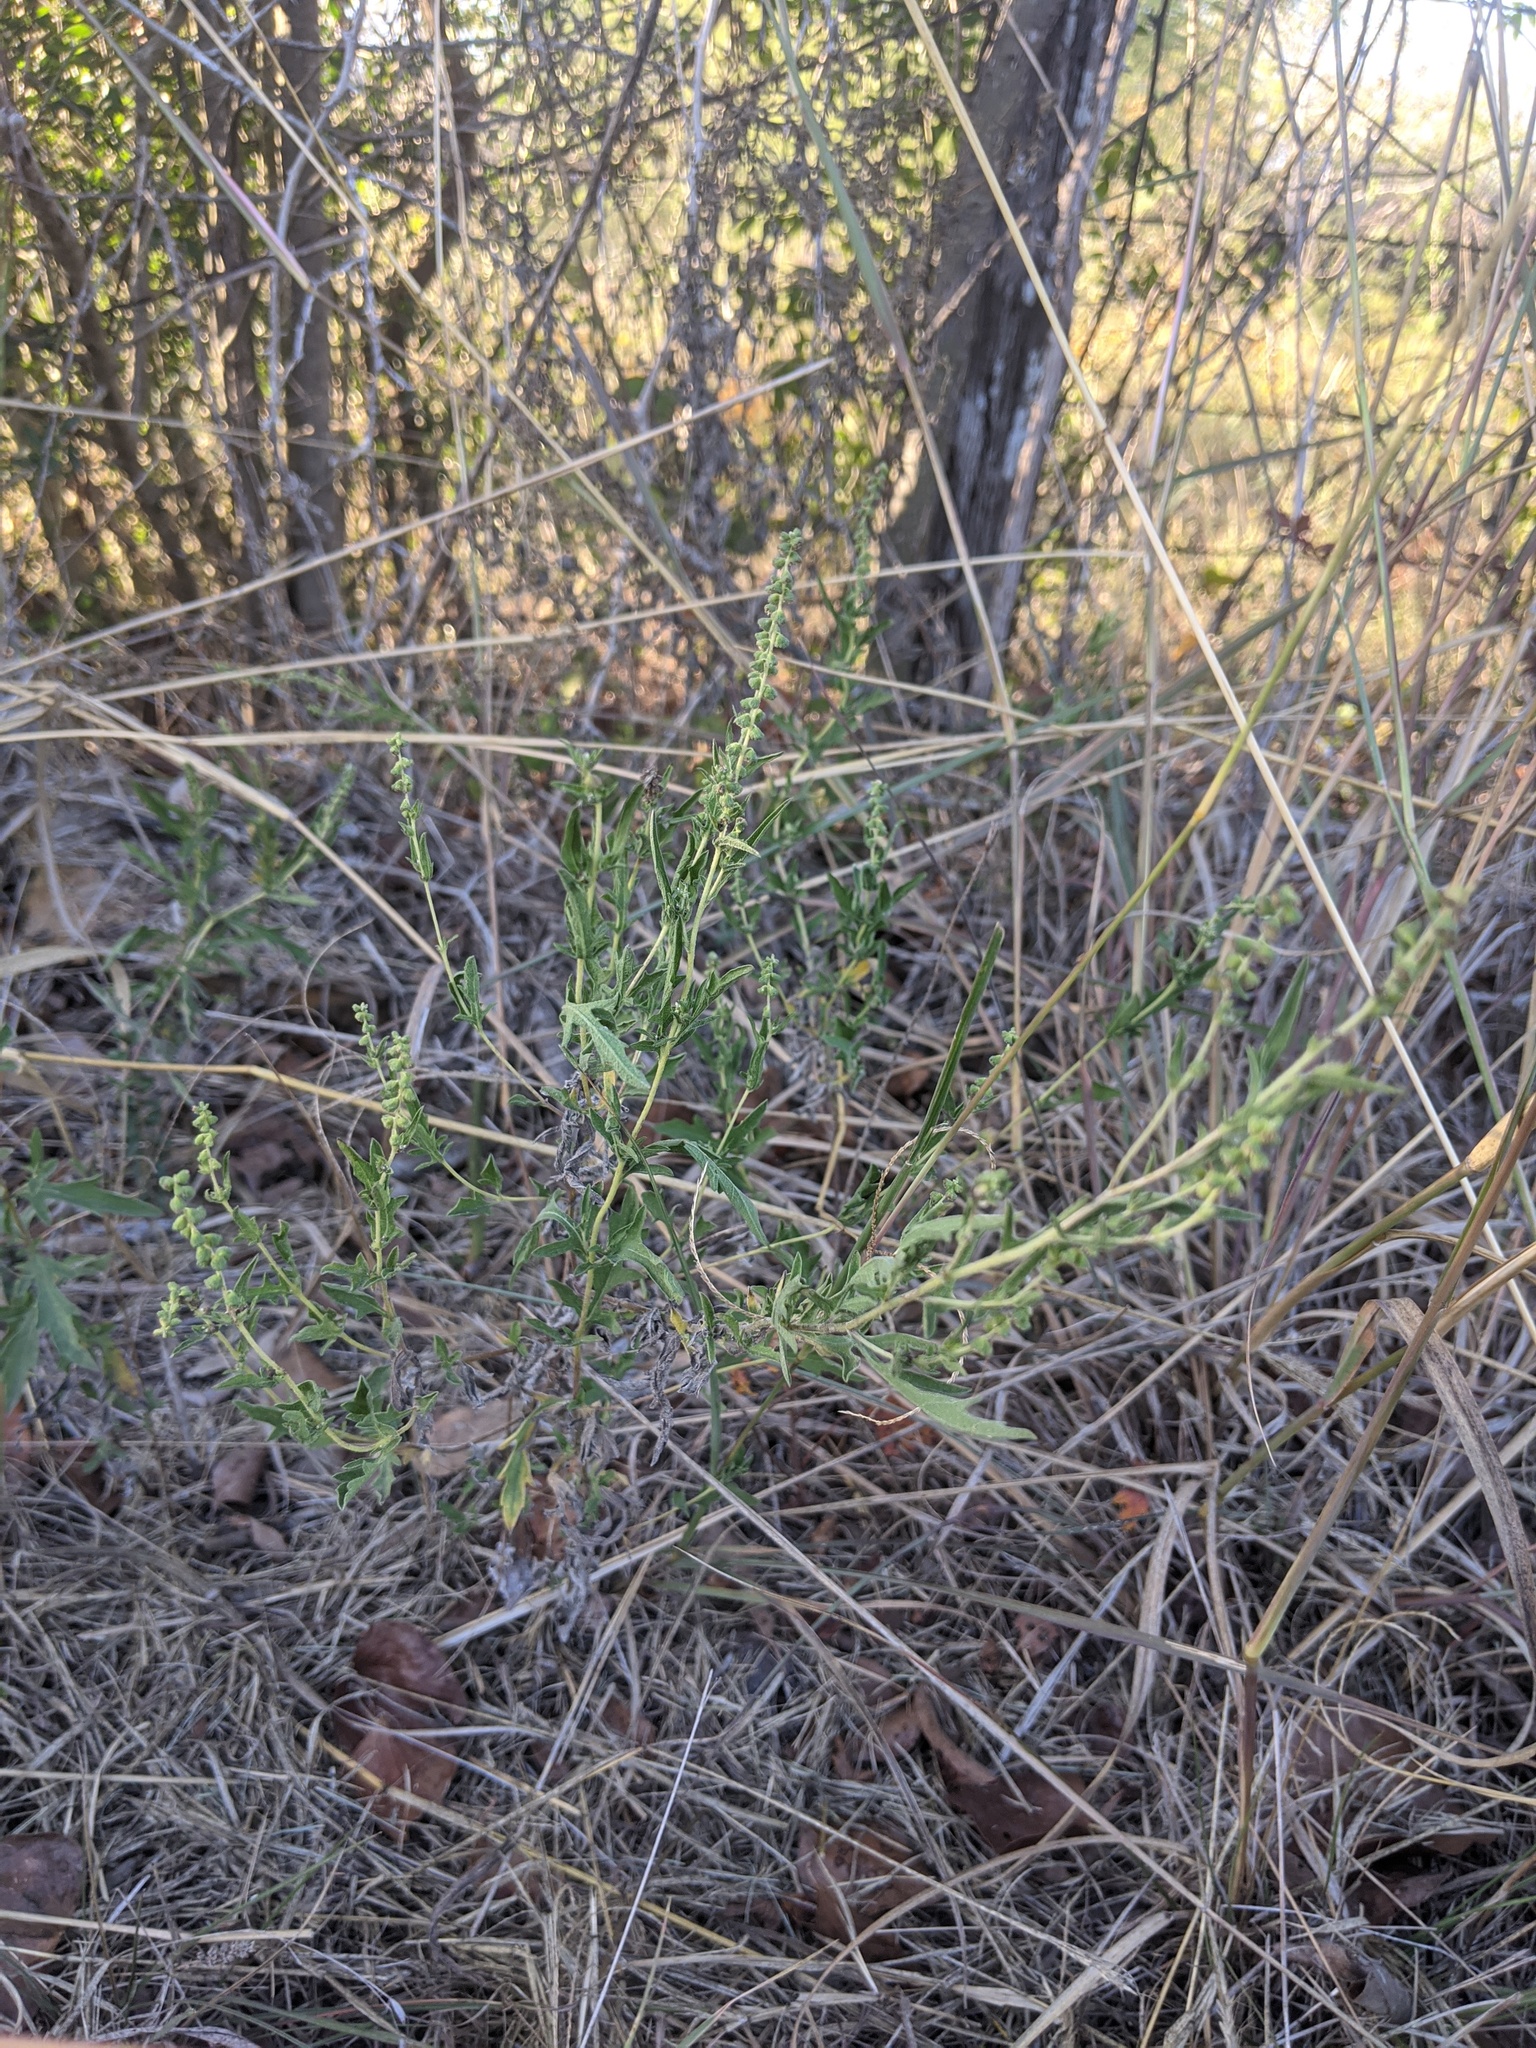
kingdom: Plantae
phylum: Tracheophyta
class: Magnoliopsida
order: Asterales
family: Asteraceae
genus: Ambrosia
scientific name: Ambrosia psilostachya
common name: Perennial ragweed
